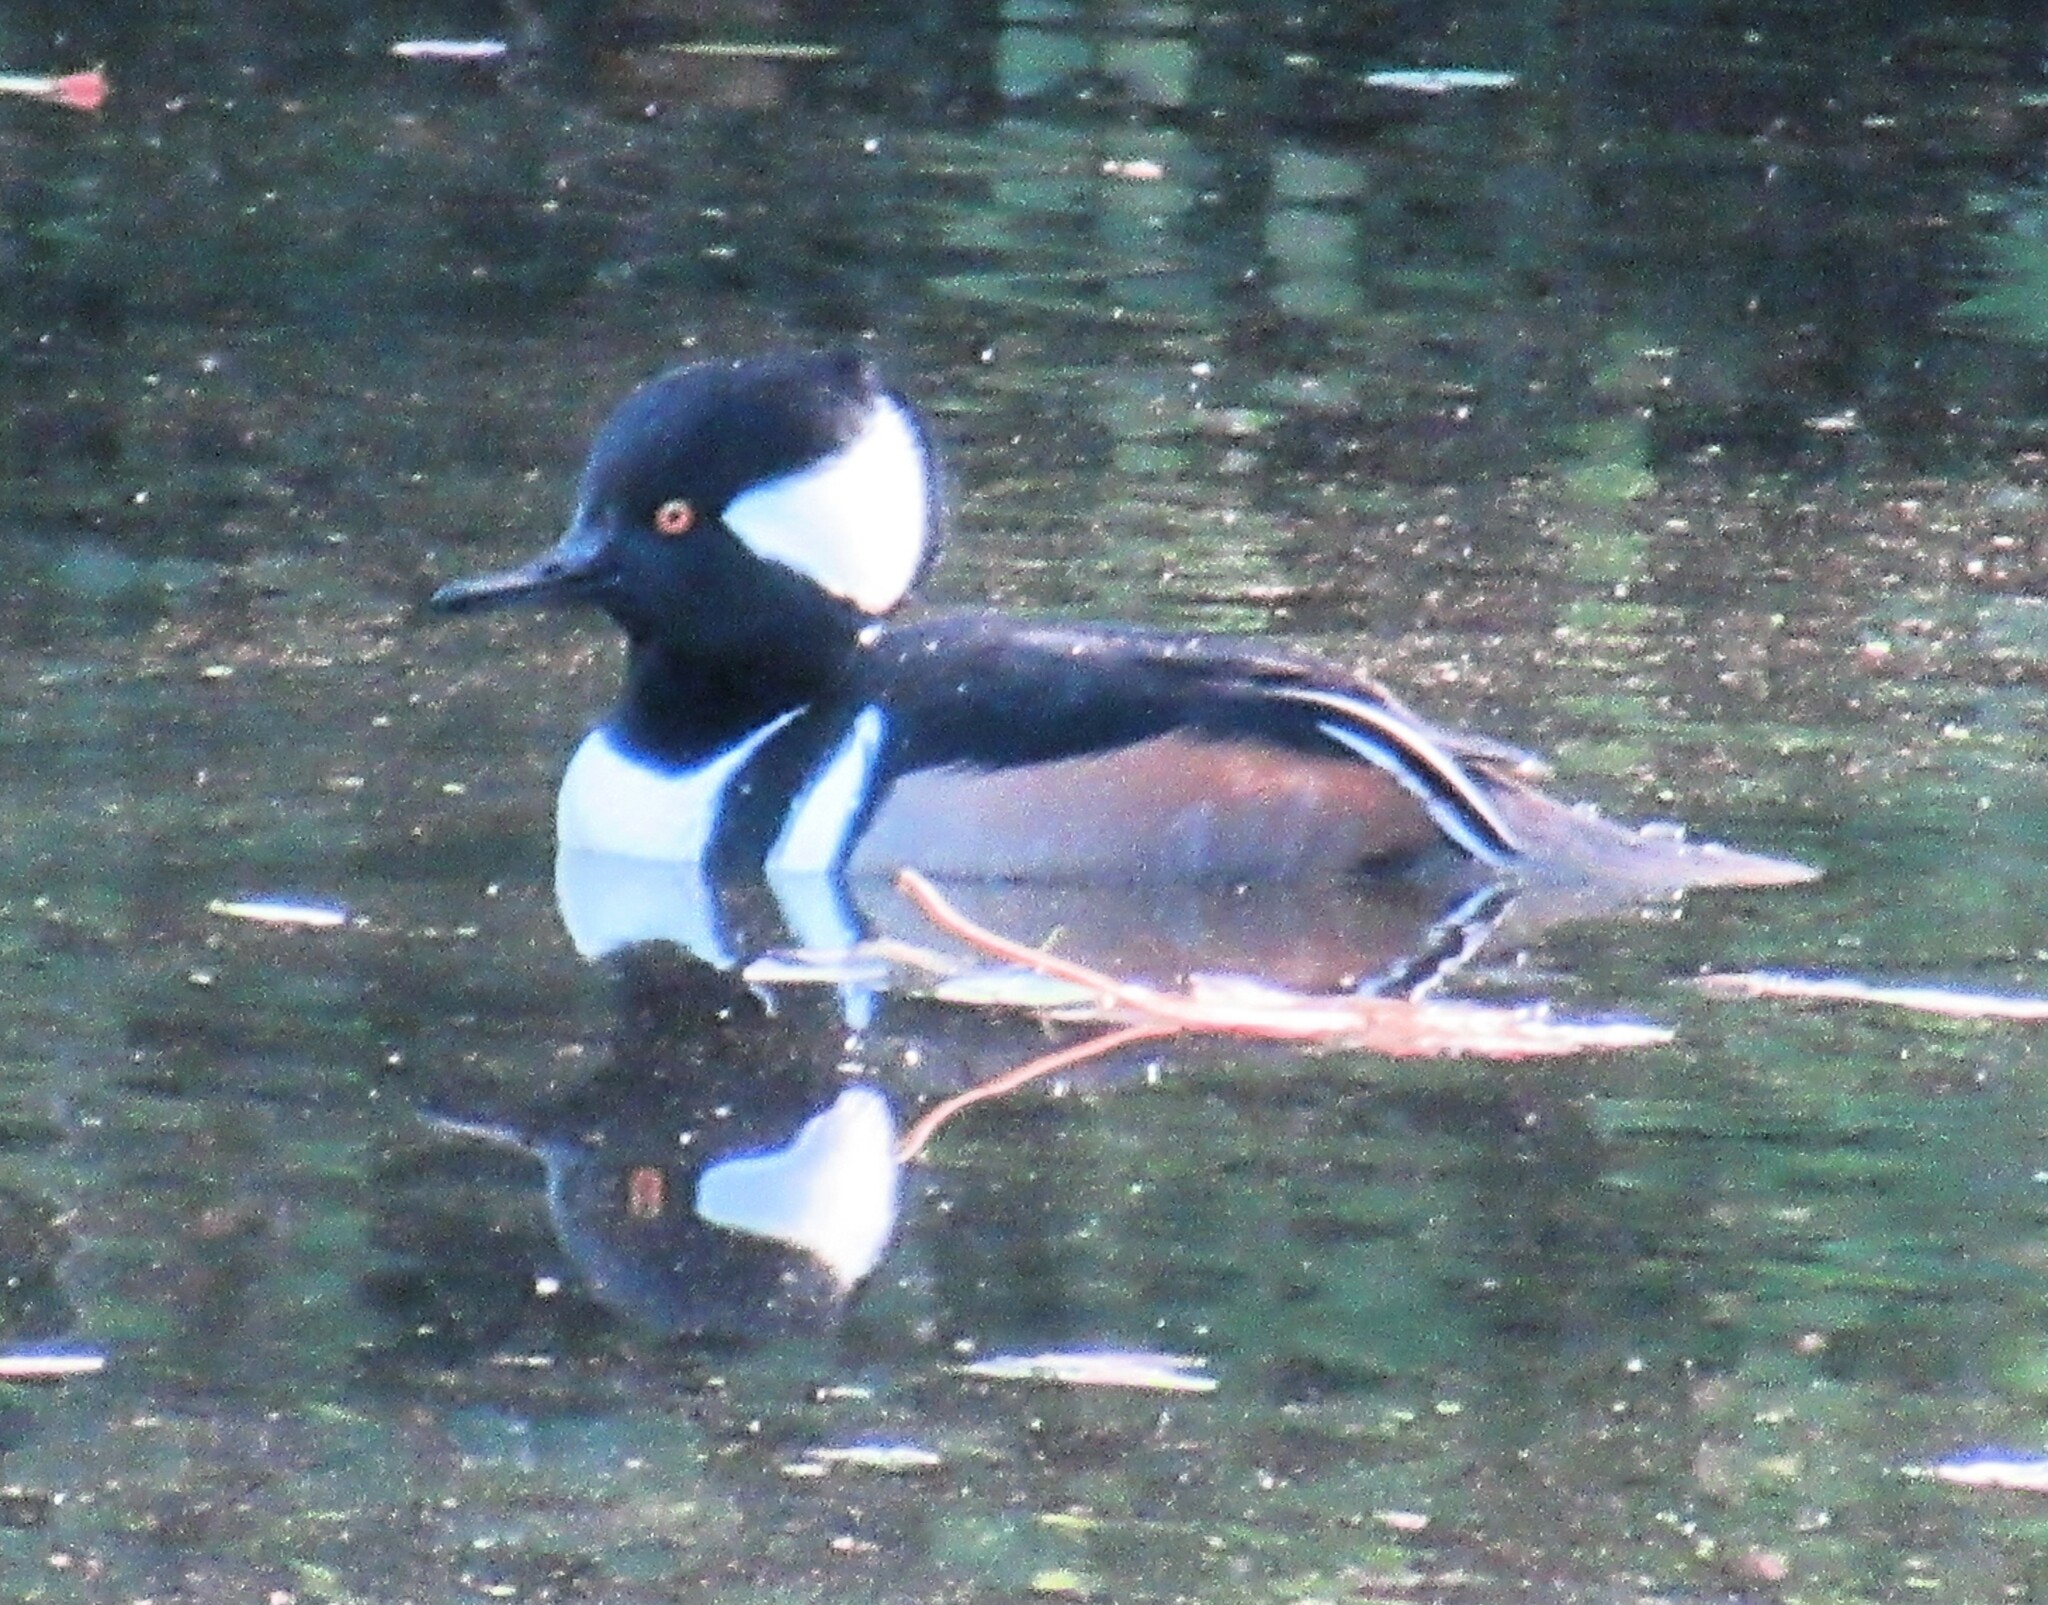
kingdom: Animalia
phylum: Chordata
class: Aves
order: Anseriformes
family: Anatidae
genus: Lophodytes
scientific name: Lophodytes cucullatus
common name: Hooded merganser
